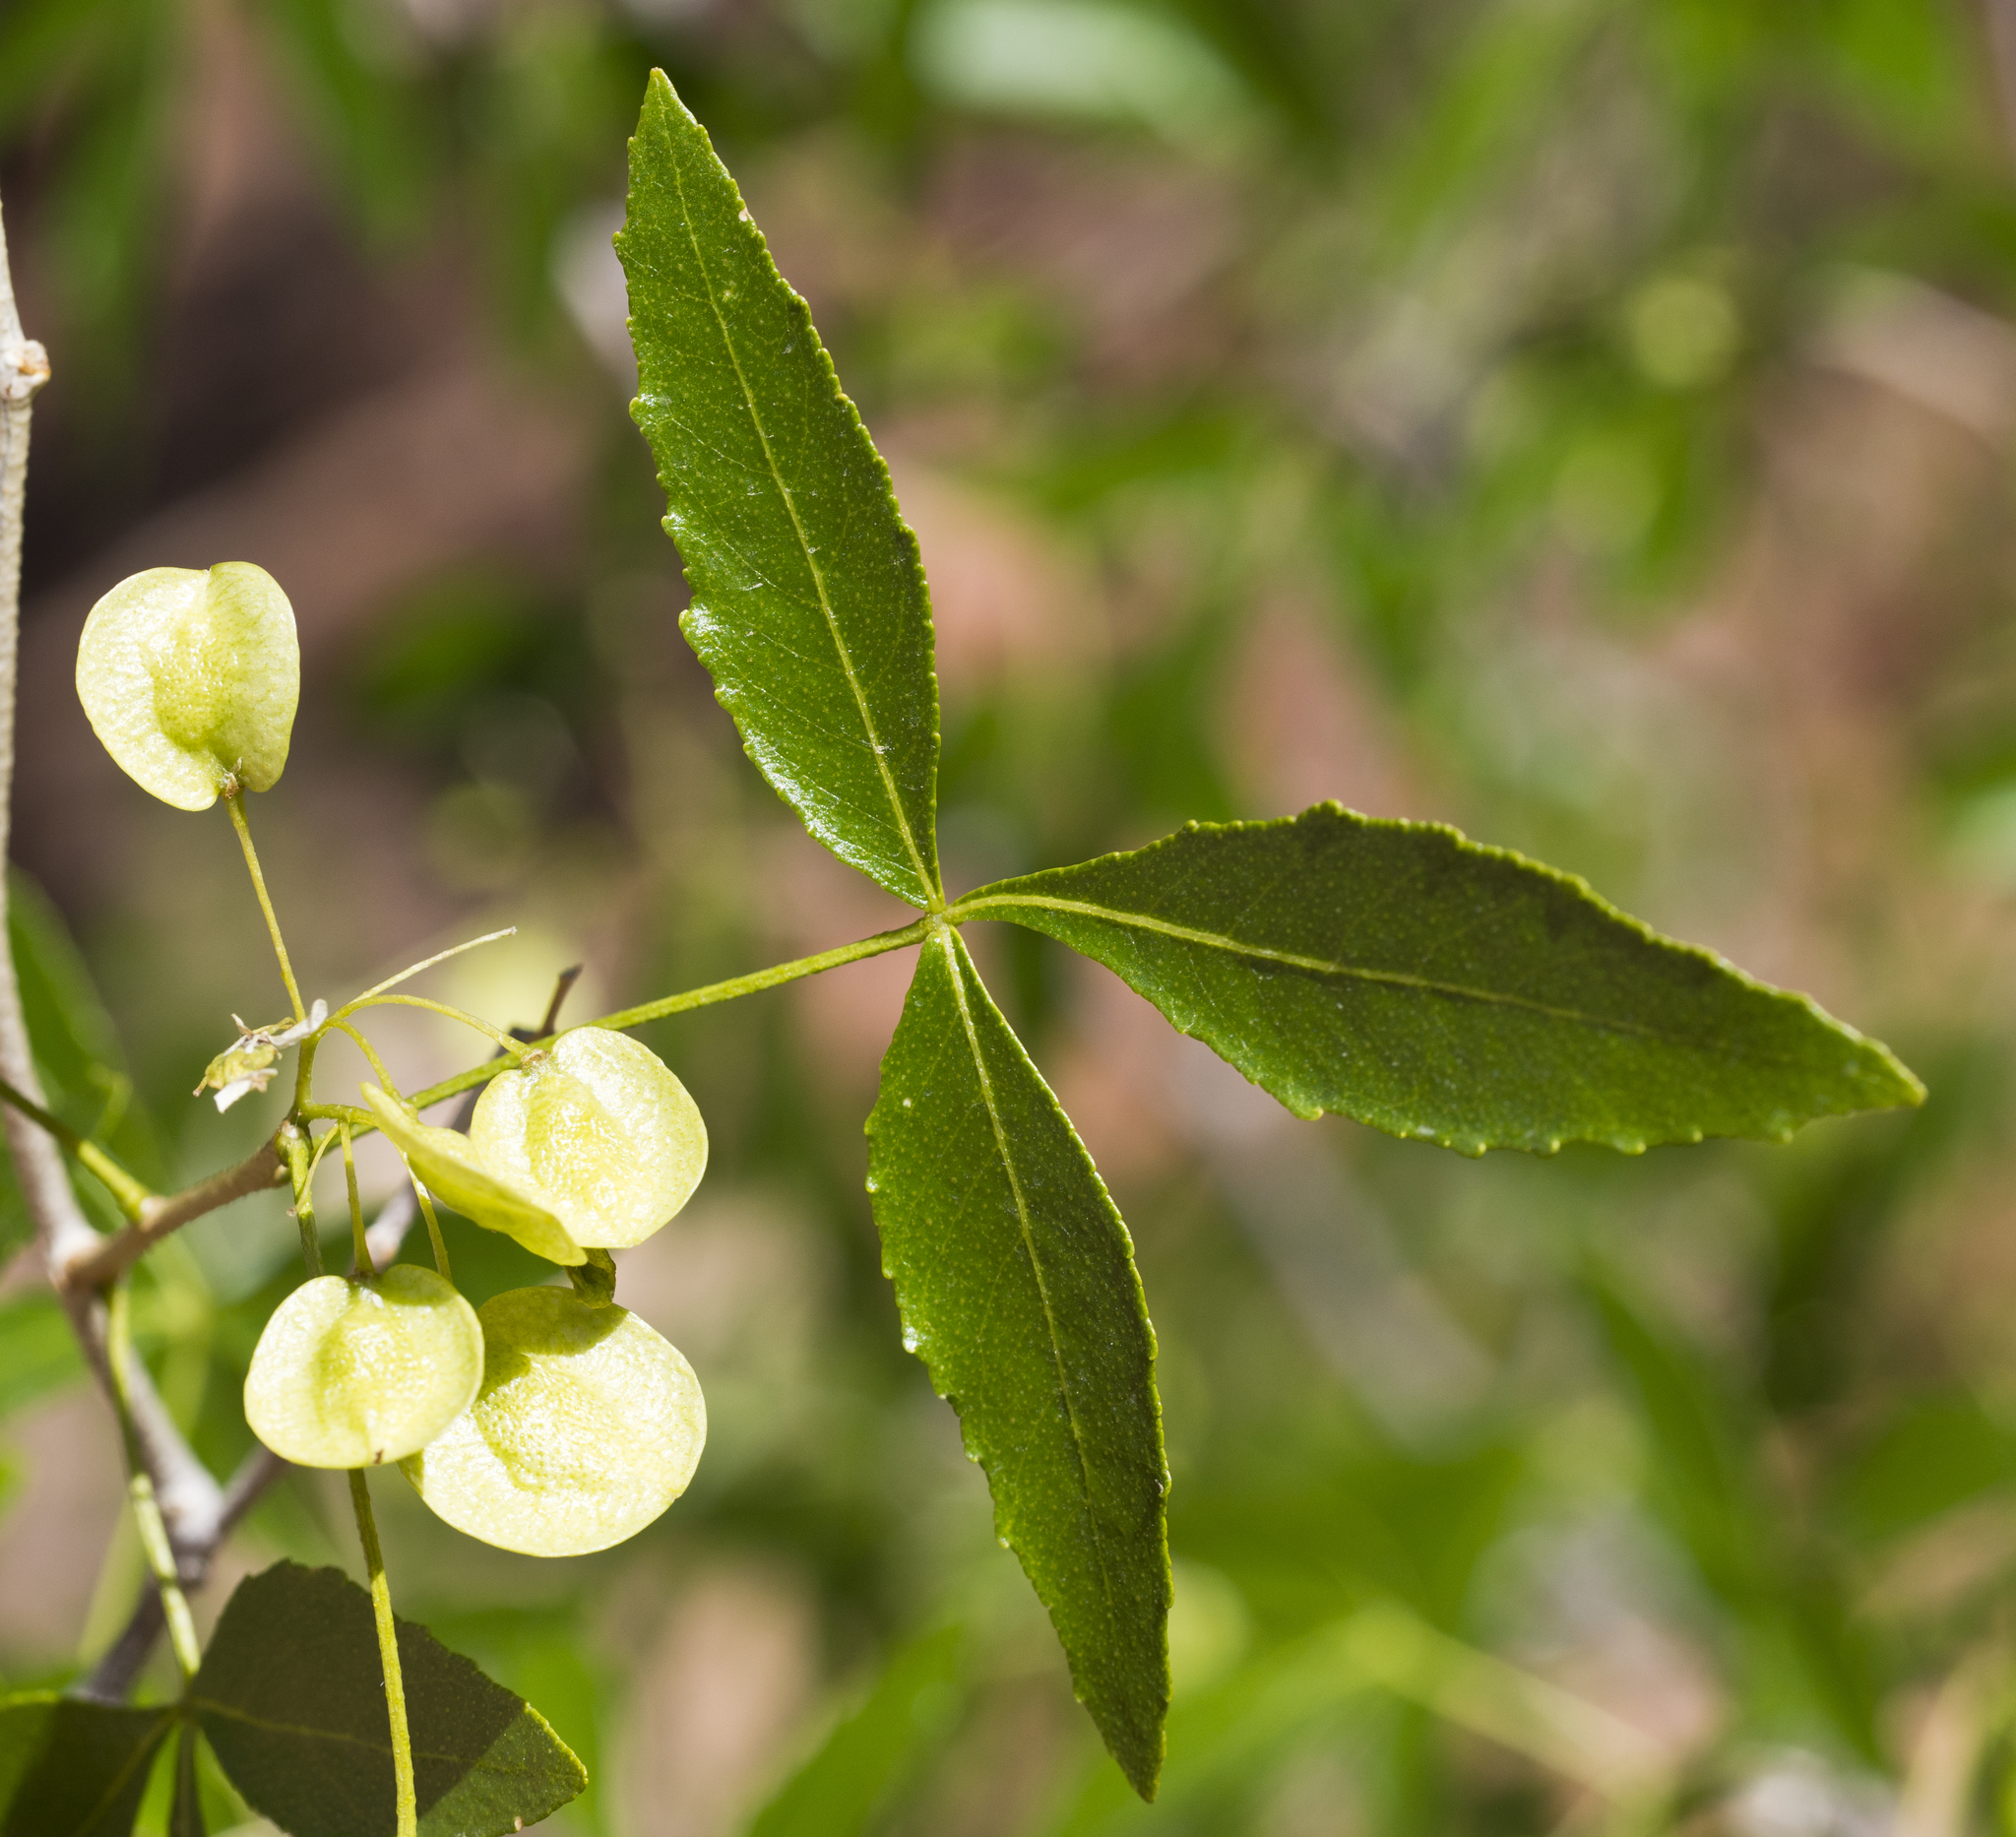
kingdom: Plantae
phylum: Tracheophyta
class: Magnoliopsida
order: Sapindales
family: Rutaceae
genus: Ptelea
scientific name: Ptelea trifoliata
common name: Common hop-tree
